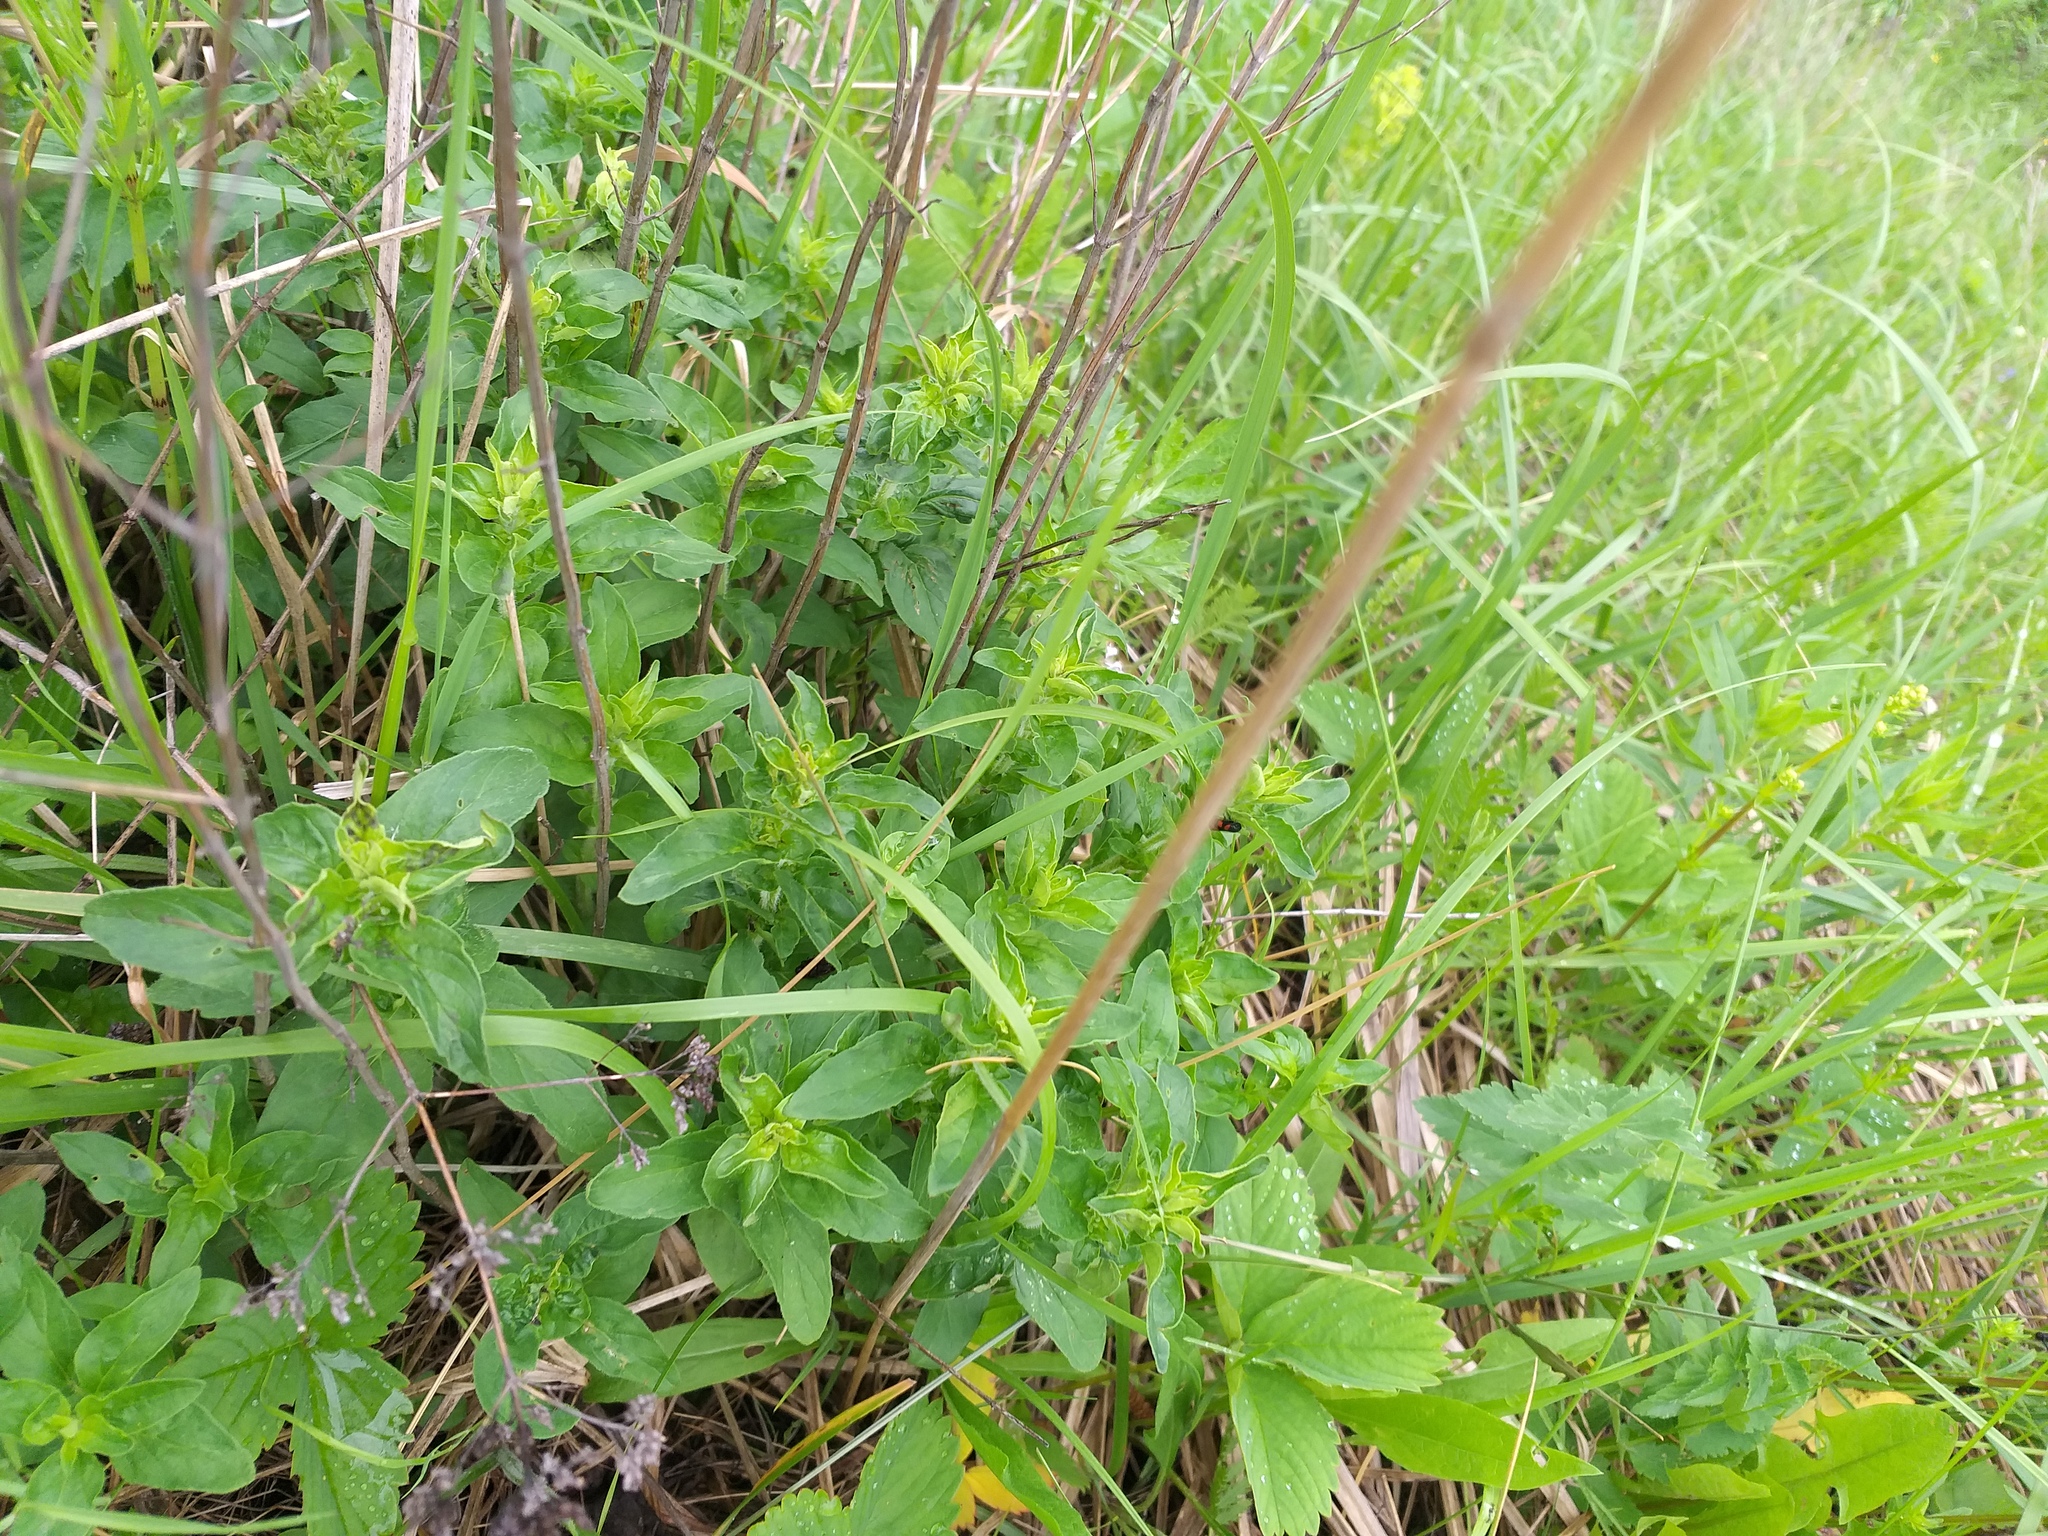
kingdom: Plantae
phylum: Tracheophyta
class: Magnoliopsida
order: Lamiales
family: Lamiaceae
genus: Origanum
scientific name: Origanum vulgare
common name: Wild marjoram
